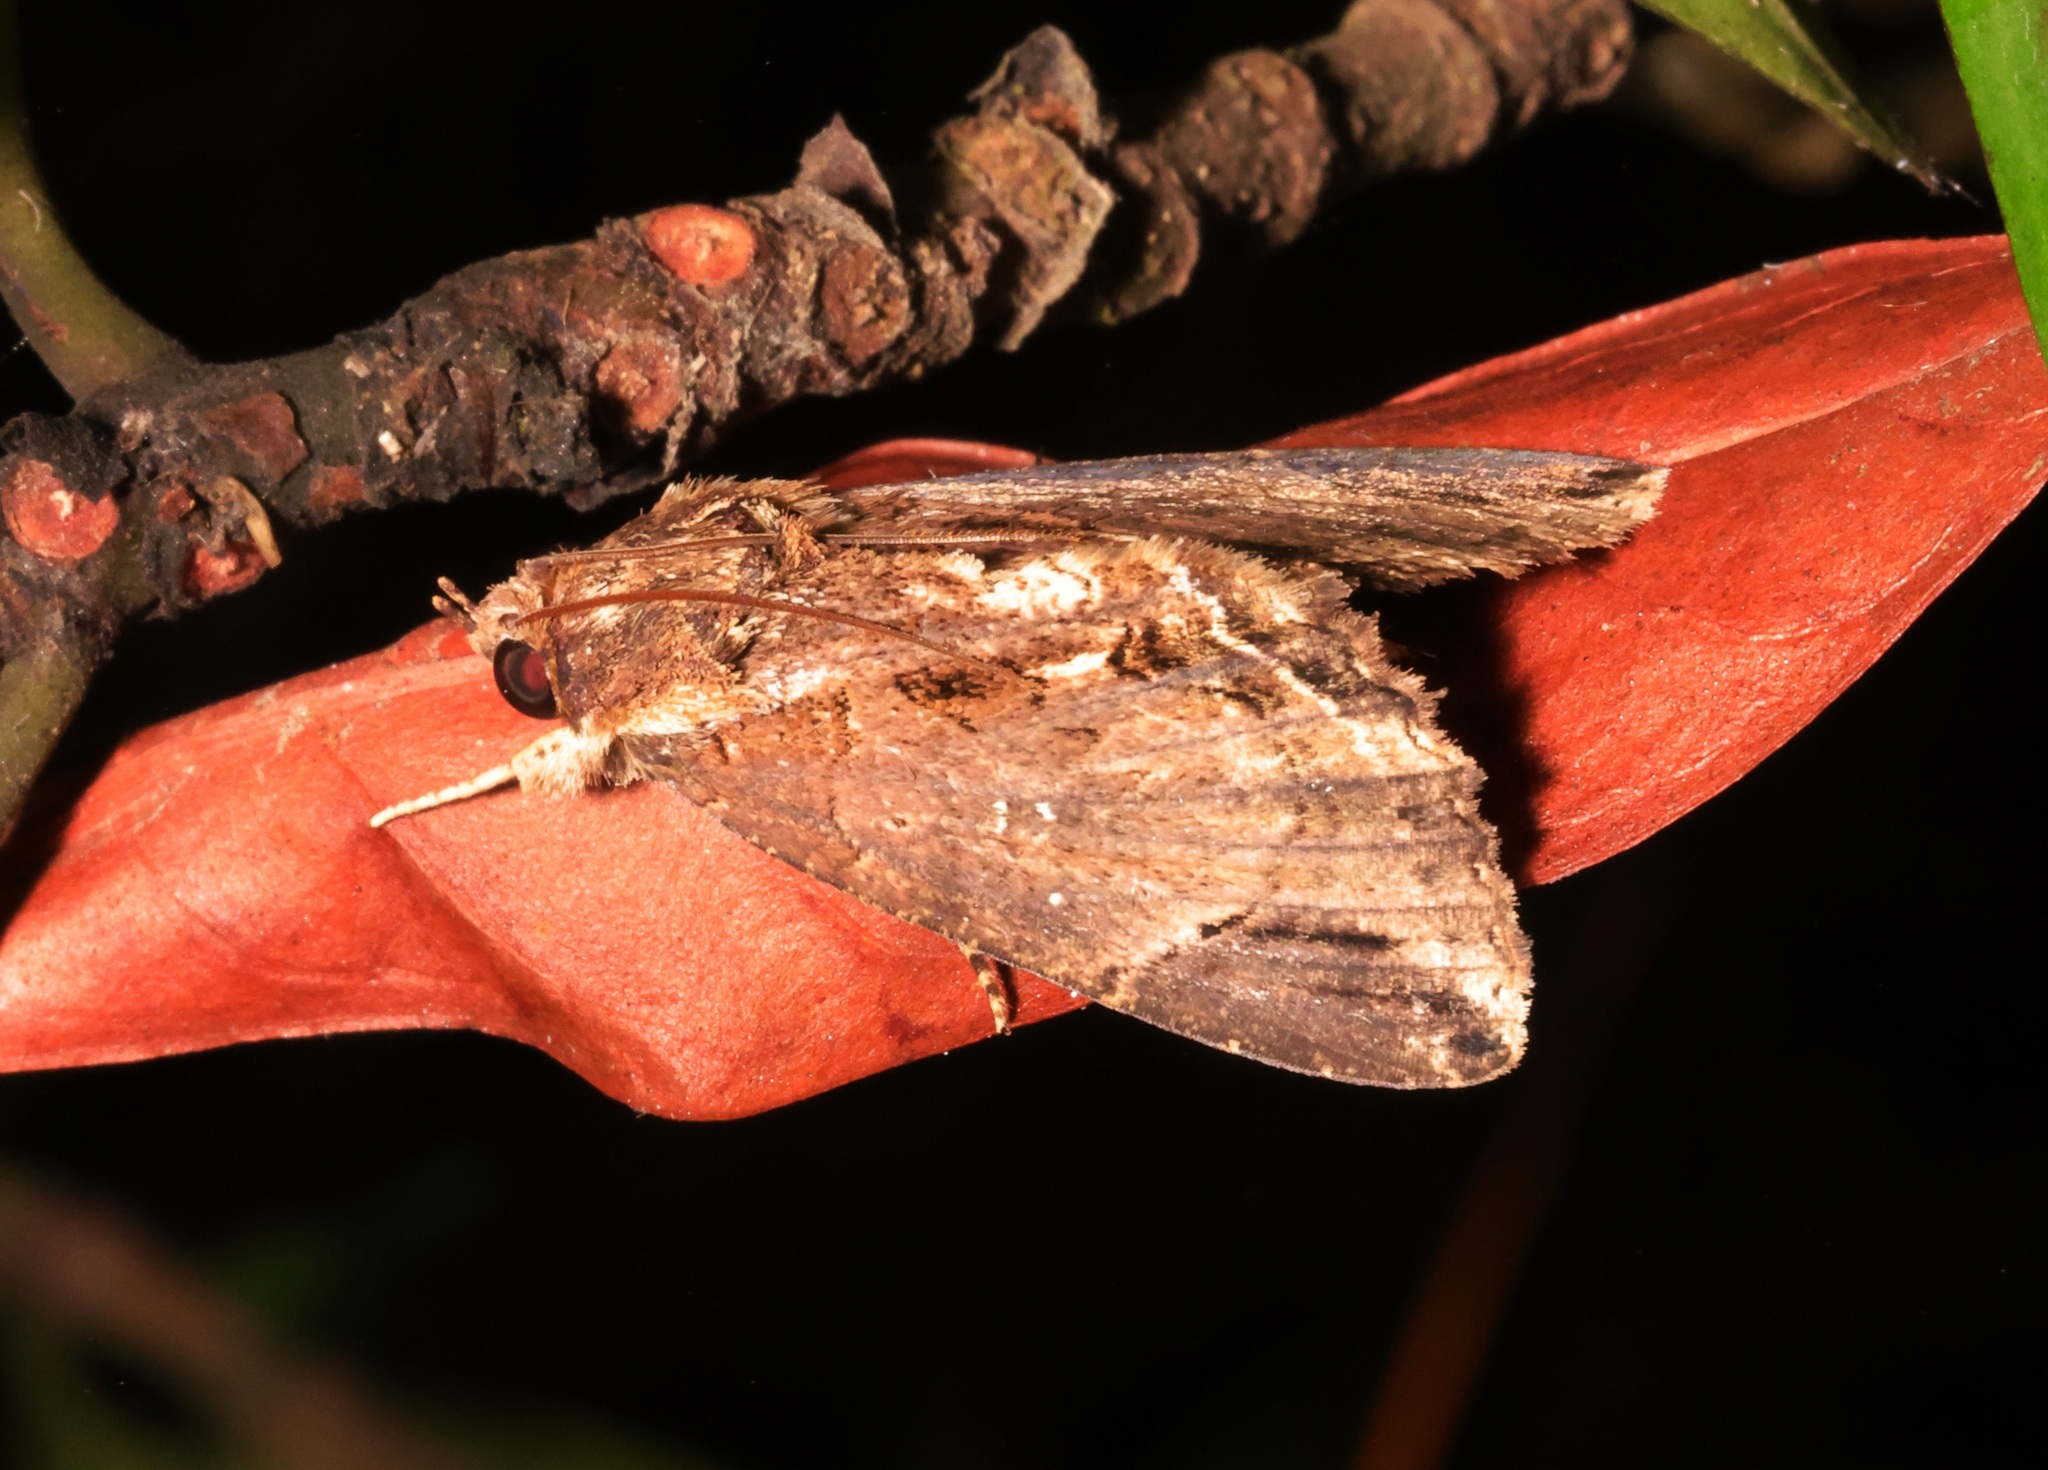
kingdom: Animalia
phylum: Arthropoda
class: Insecta
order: Lepidoptera
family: Erebidae
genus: Ercheia
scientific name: Ercheia cyllaria
